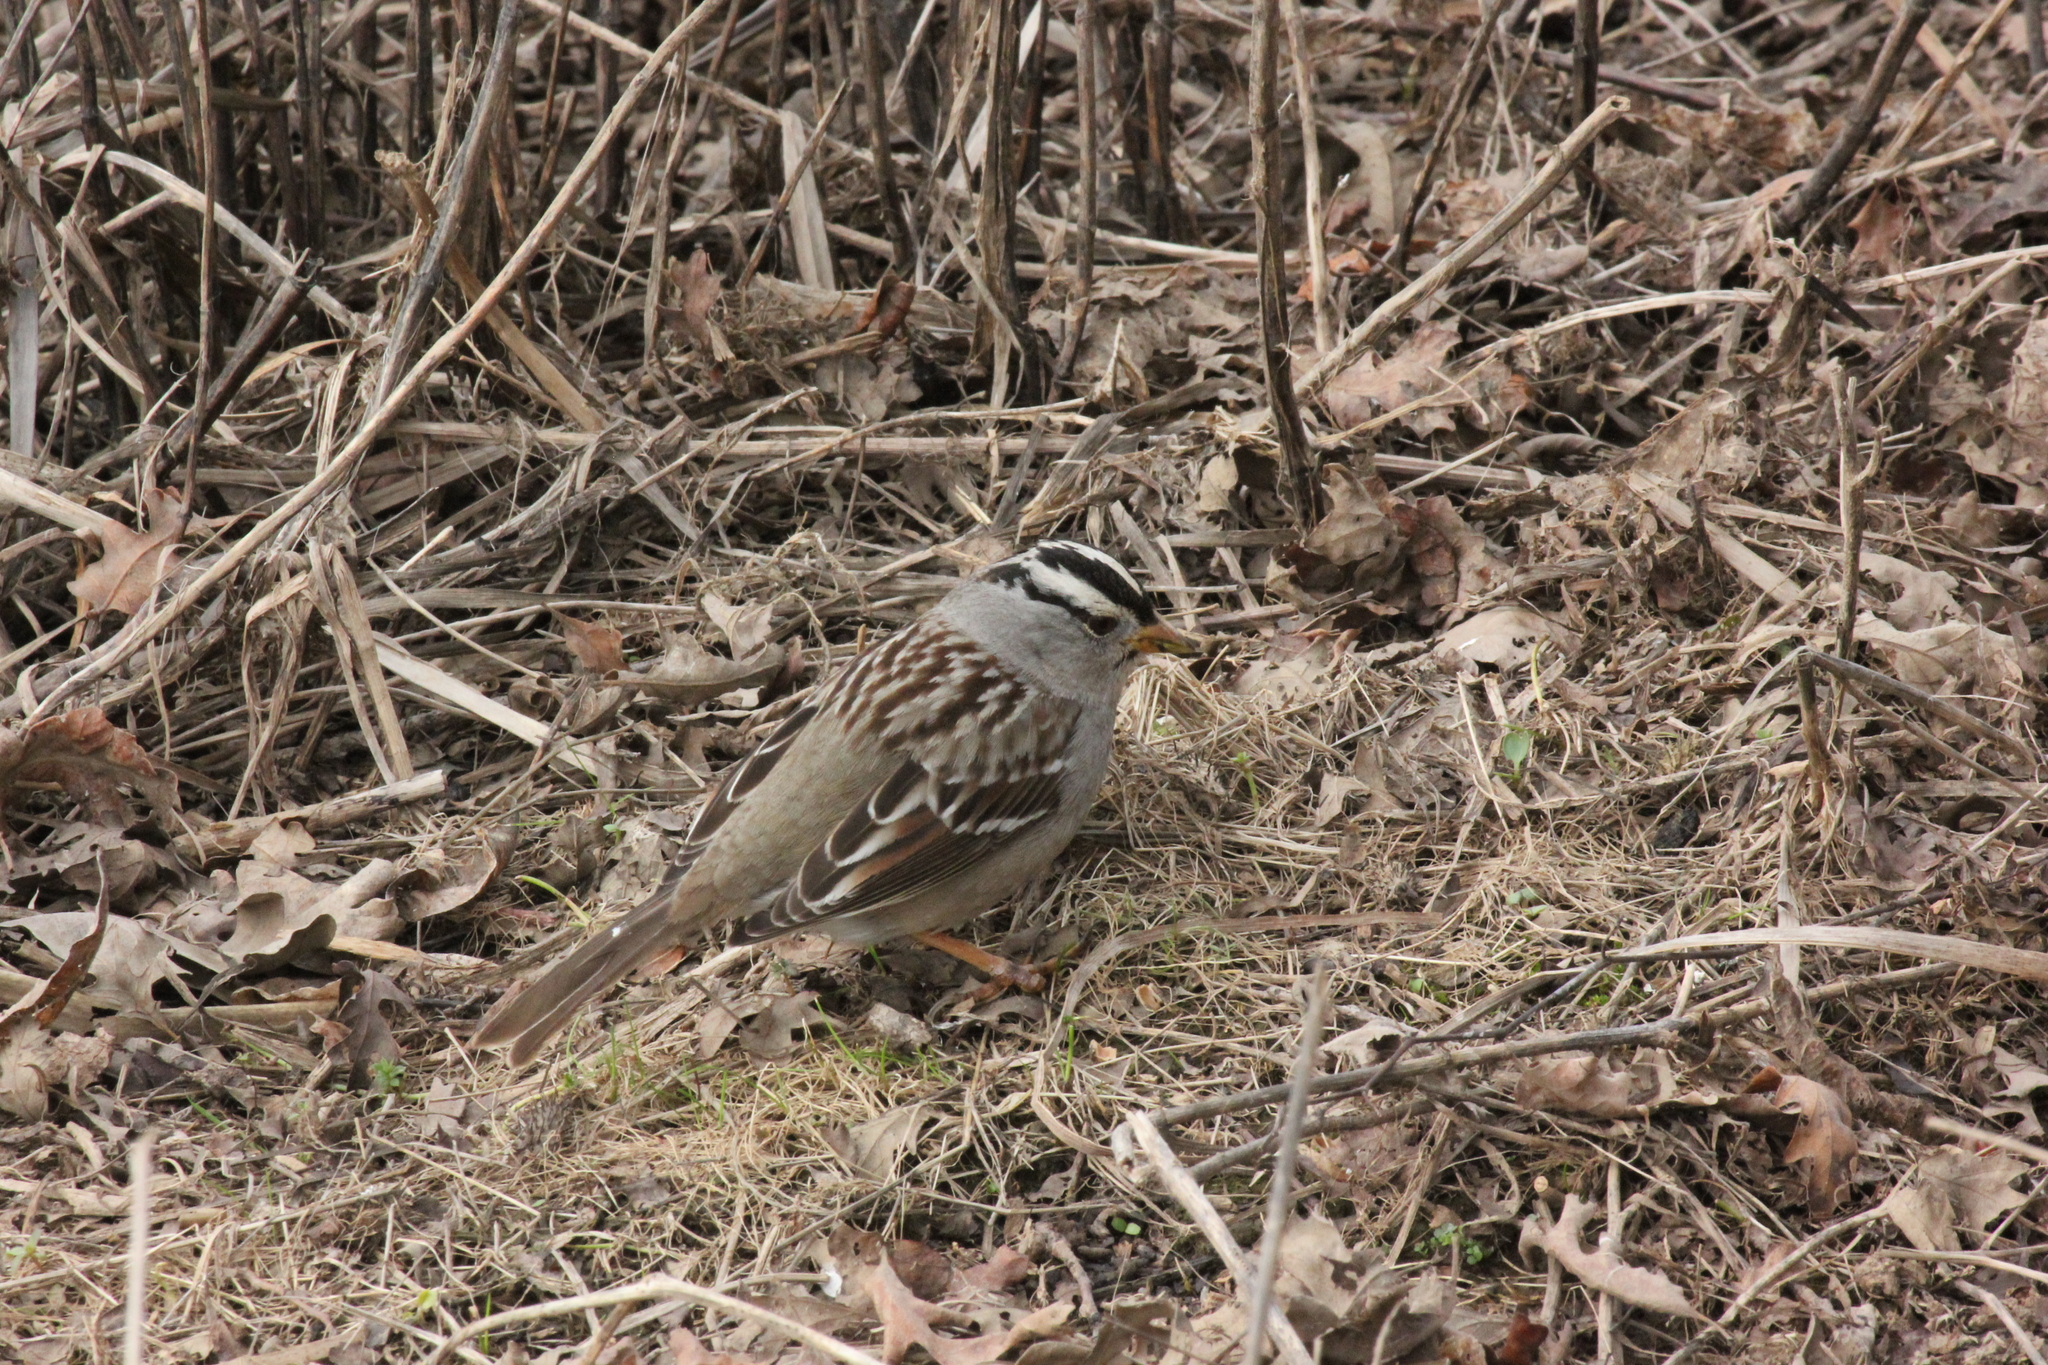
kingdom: Animalia
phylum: Chordata
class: Aves
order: Passeriformes
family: Passerellidae
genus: Zonotrichia
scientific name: Zonotrichia leucophrys
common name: White-crowned sparrow
